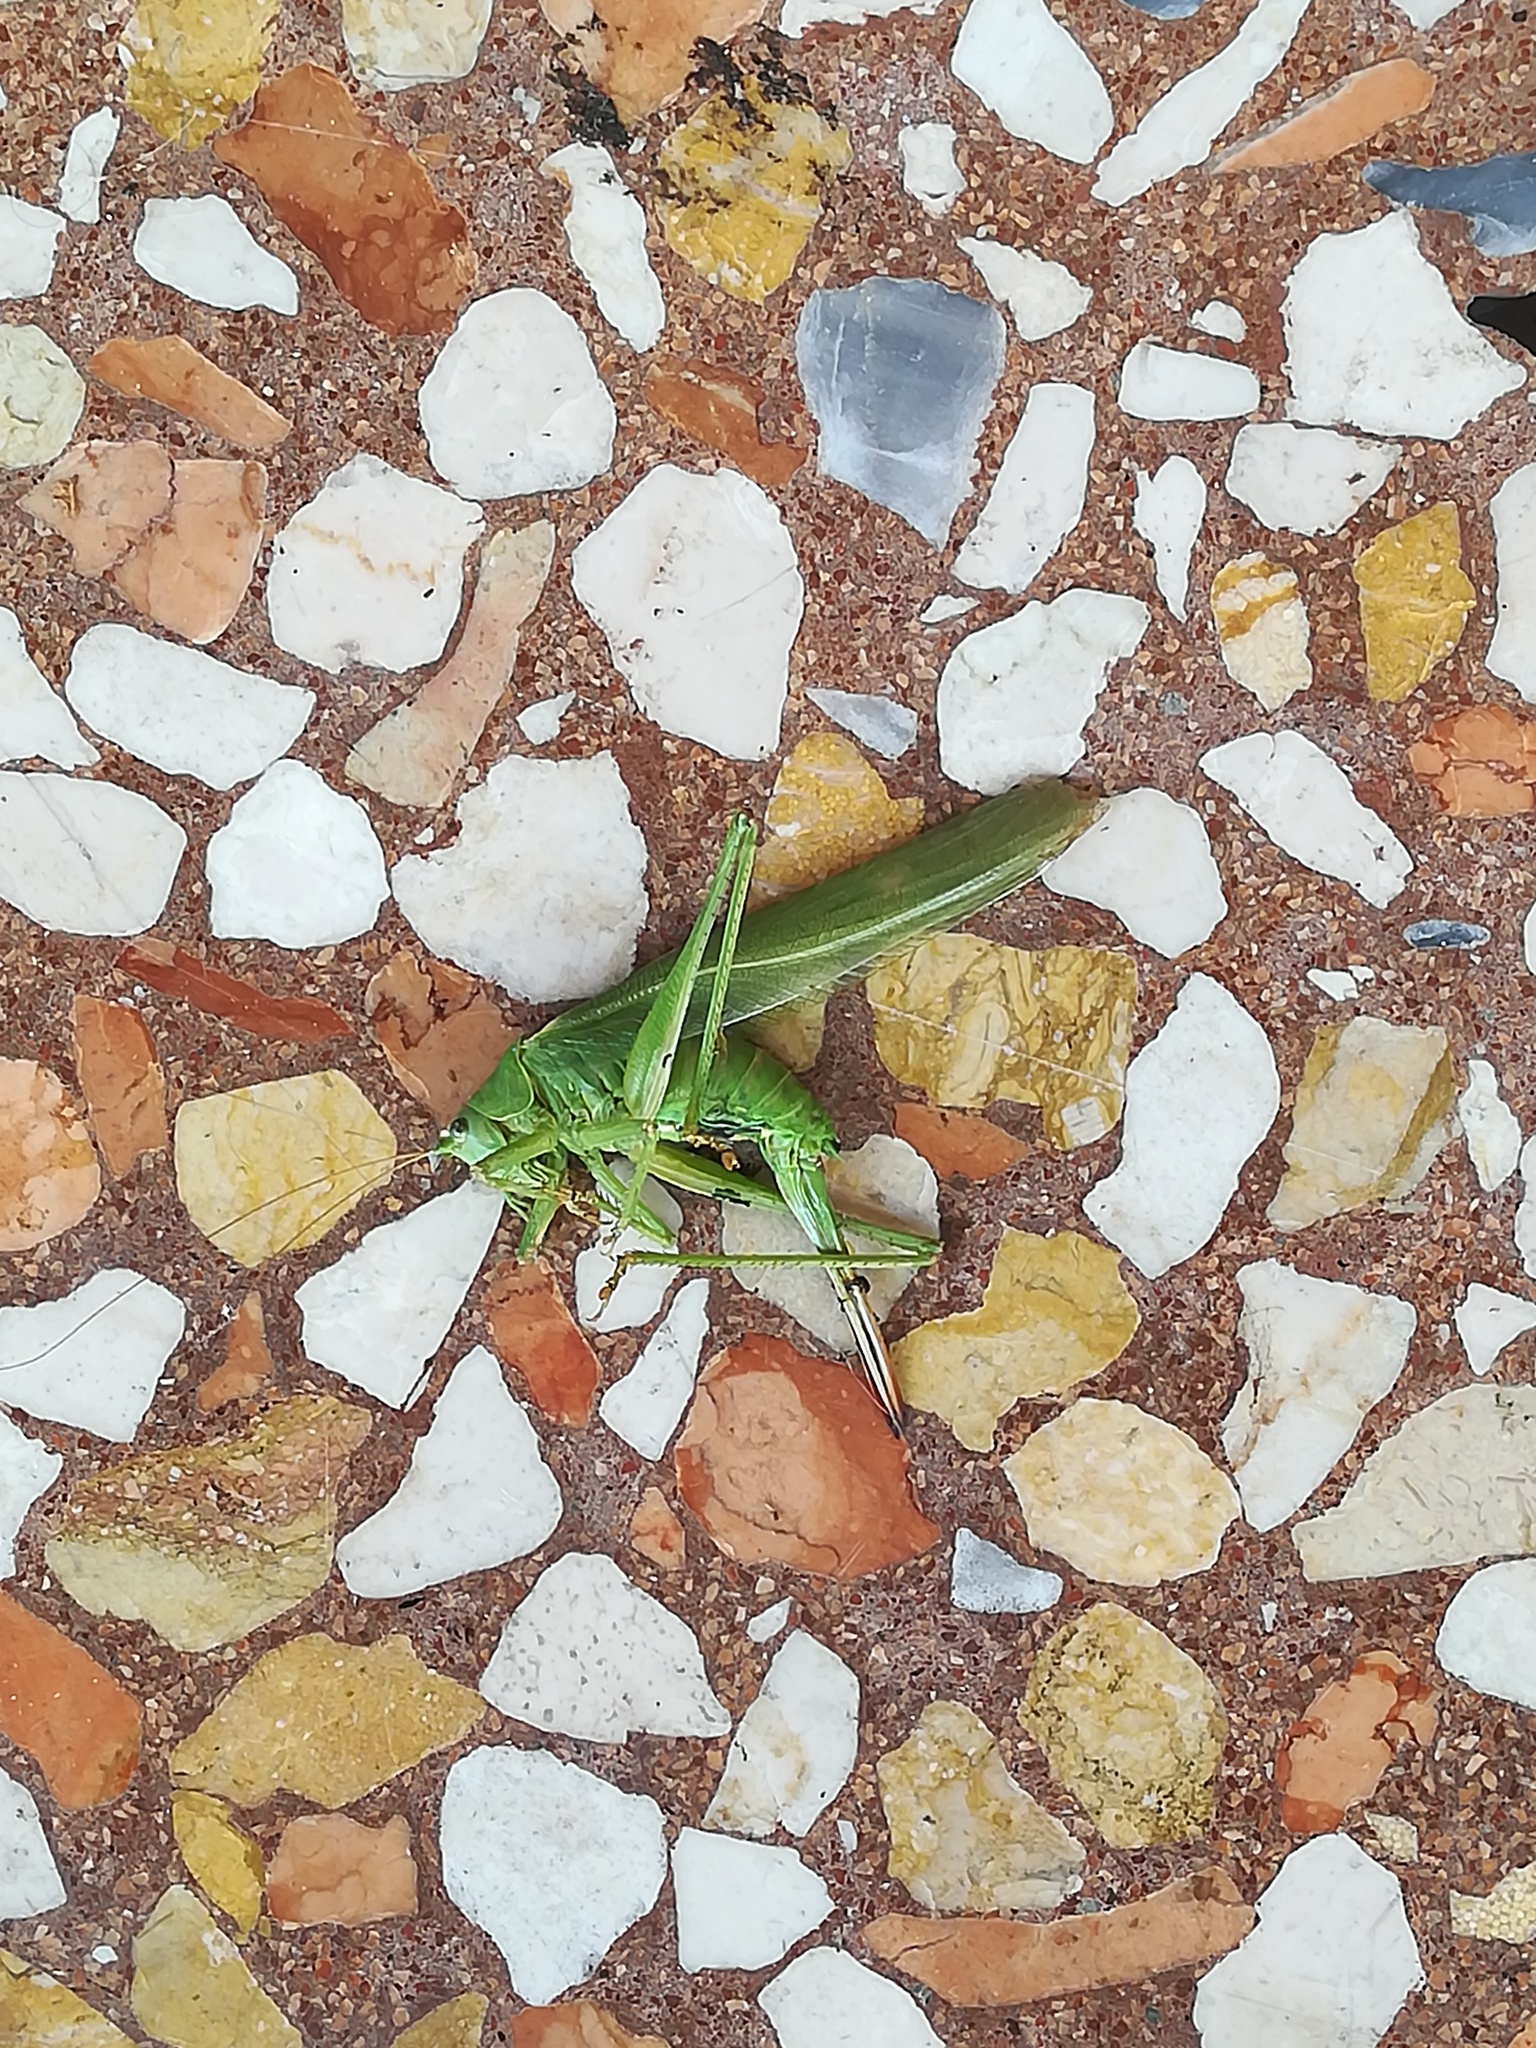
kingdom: Animalia
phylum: Arthropoda
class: Insecta
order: Orthoptera
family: Tettigoniidae
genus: Tettigonia
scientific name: Tettigonia viridissima
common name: Great green bush-cricket
